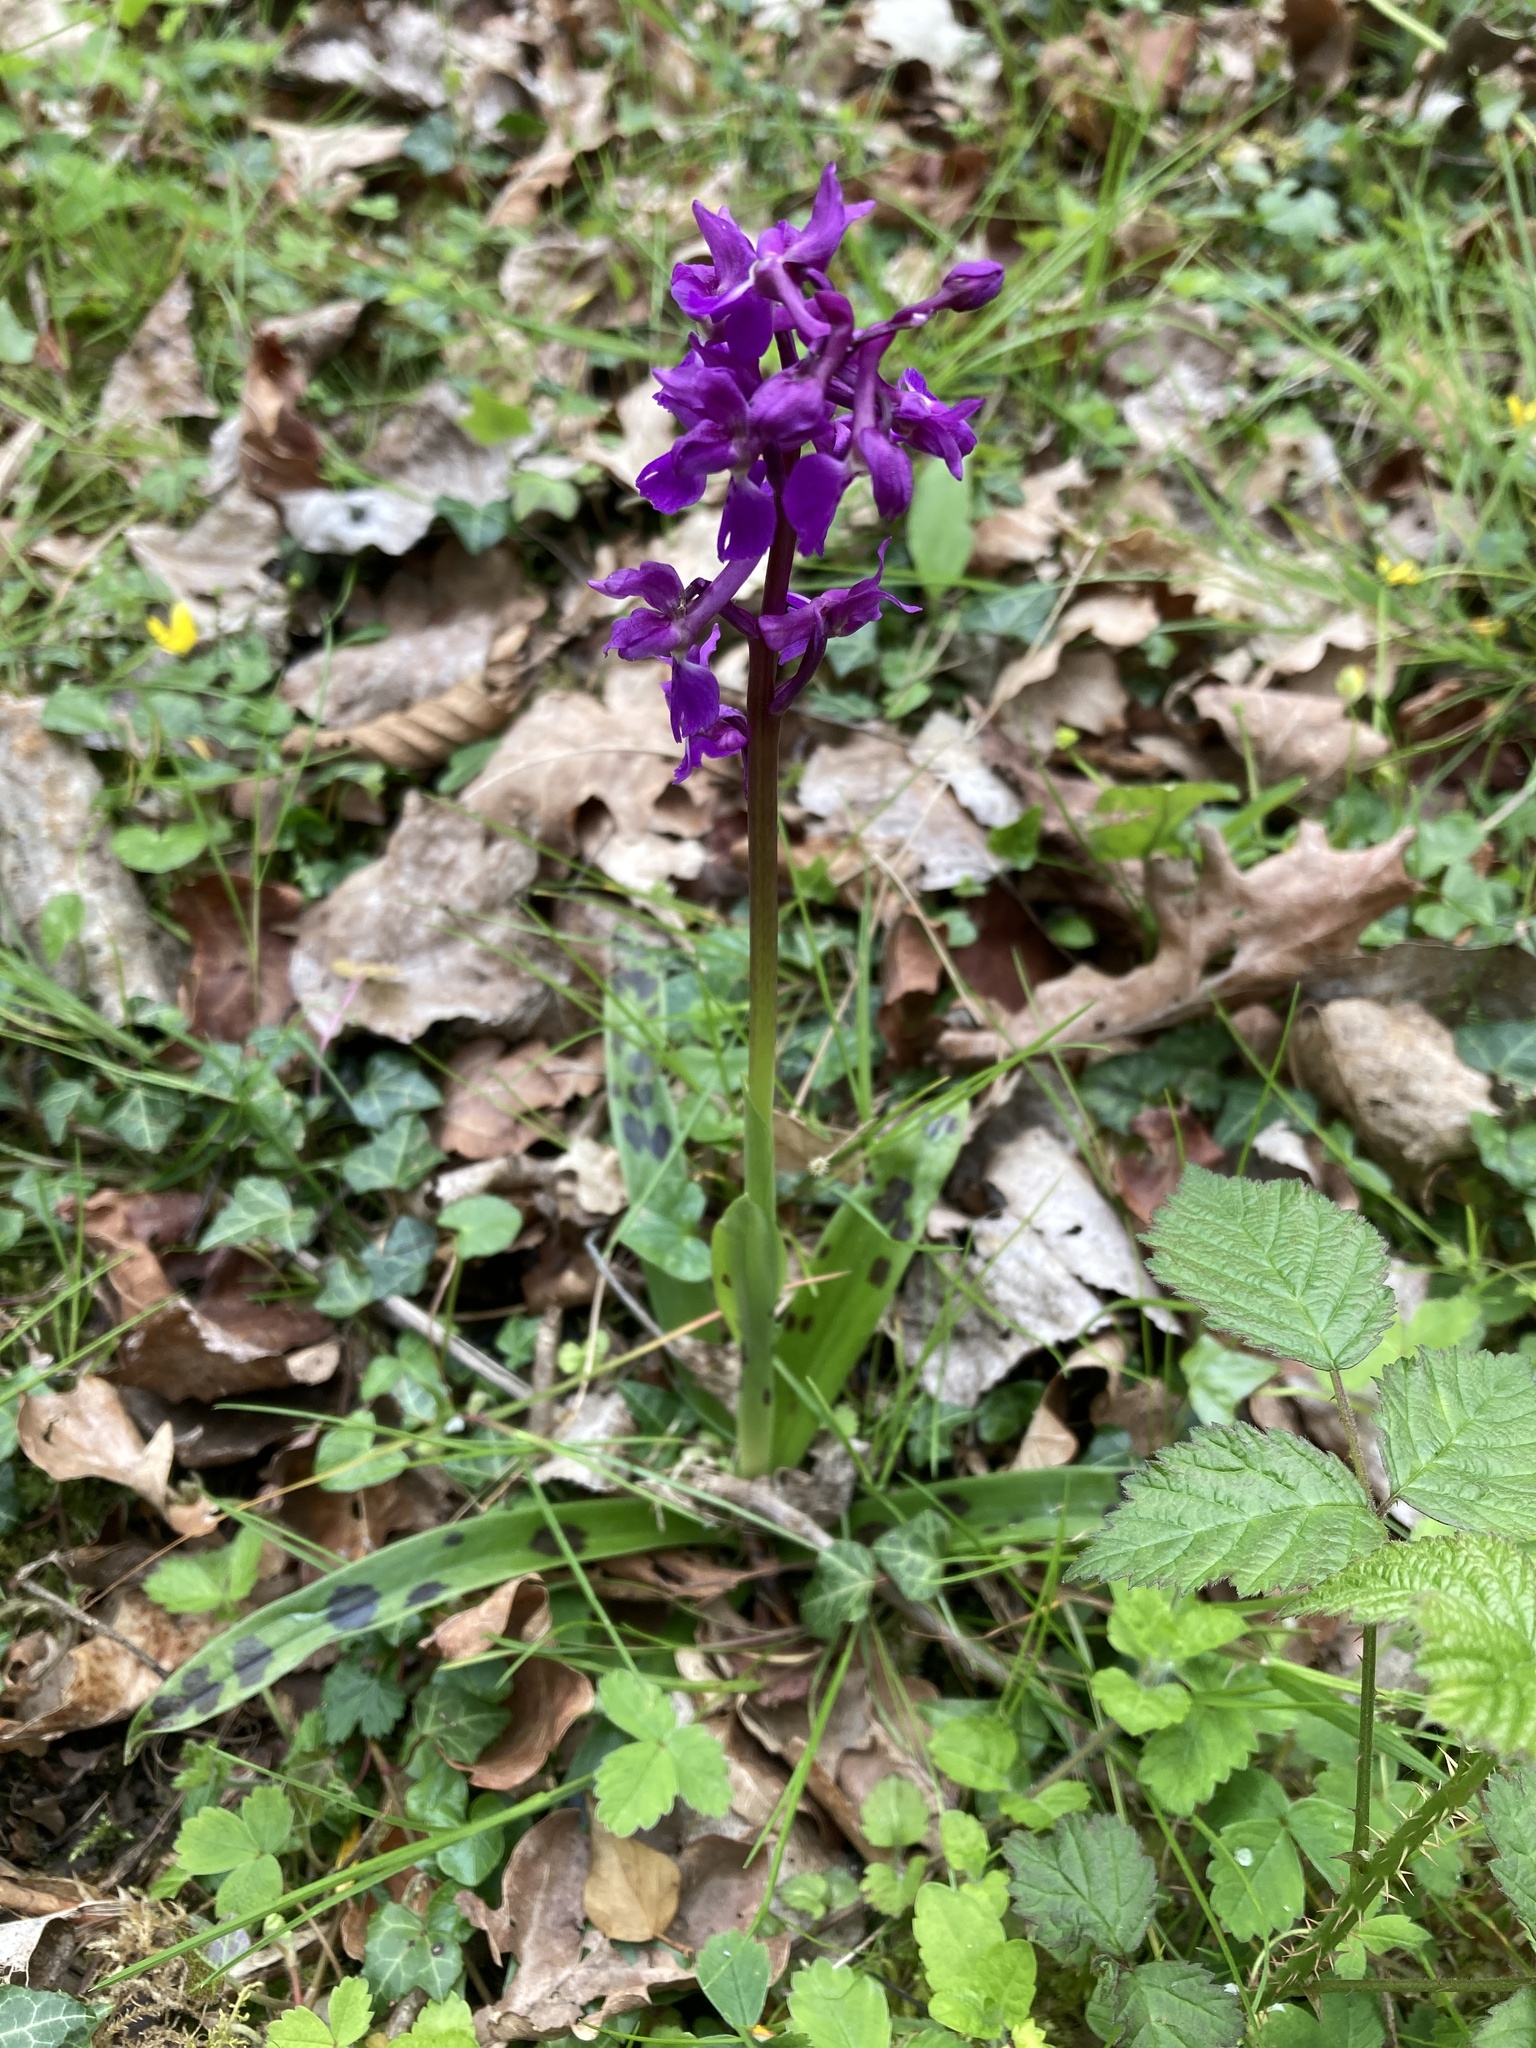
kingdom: Plantae
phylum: Tracheophyta
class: Liliopsida
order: Asparagales
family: Orchidaceae
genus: Orchis
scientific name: Orchis mascula
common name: Early-purple orchid
